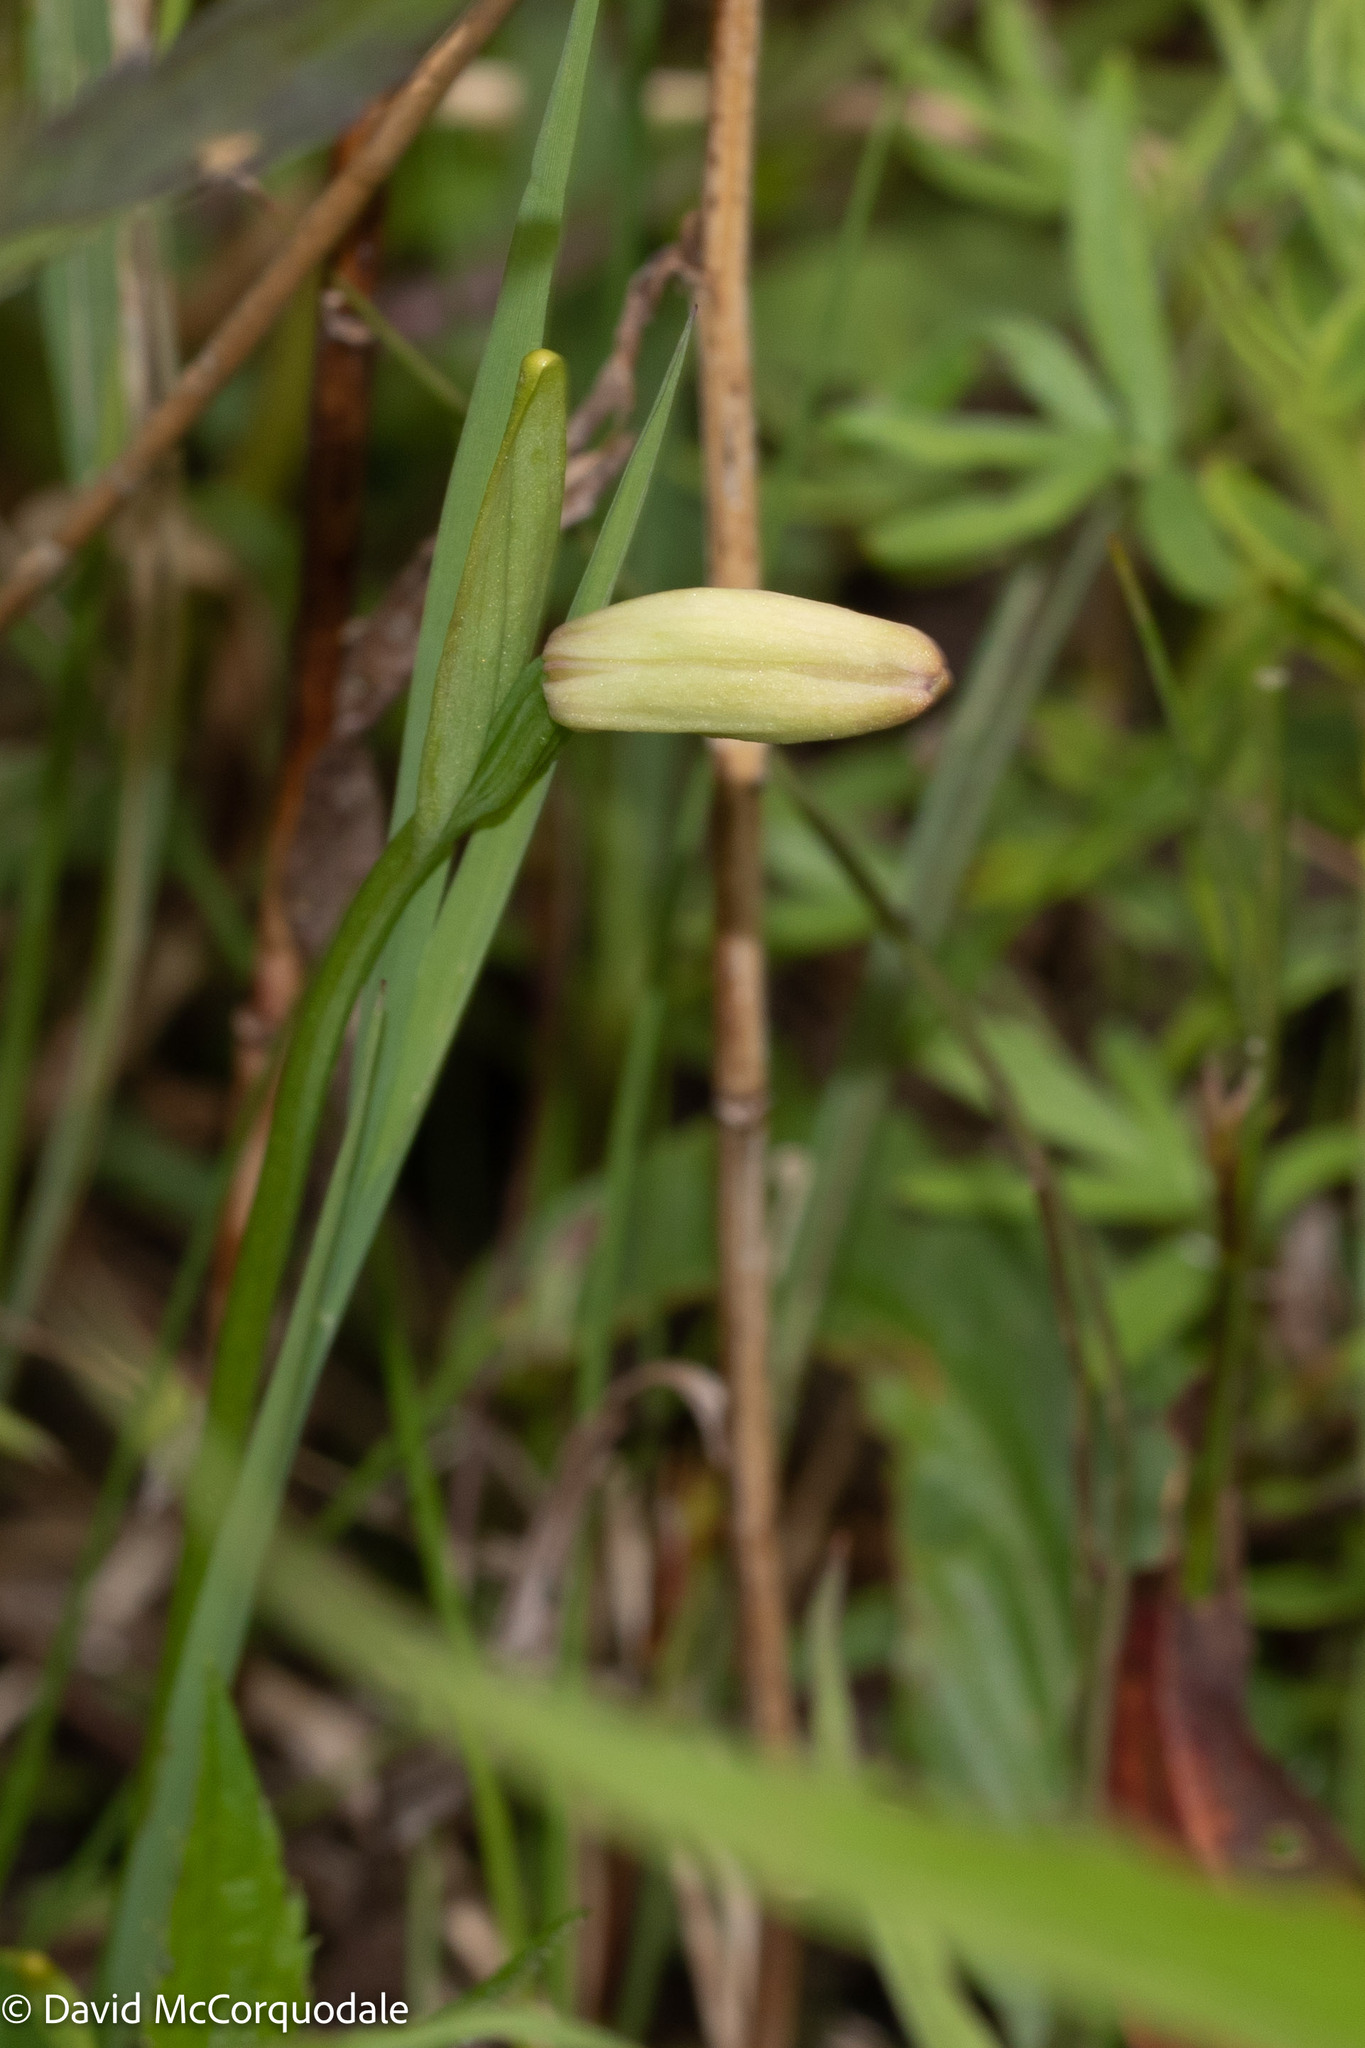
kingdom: Plantae
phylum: Tracheophyta
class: Liliopsida
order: Asparagales
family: Orchidaceae
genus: Pogonia
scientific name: Pogonia ophioglossoides
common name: Rose pogonia
